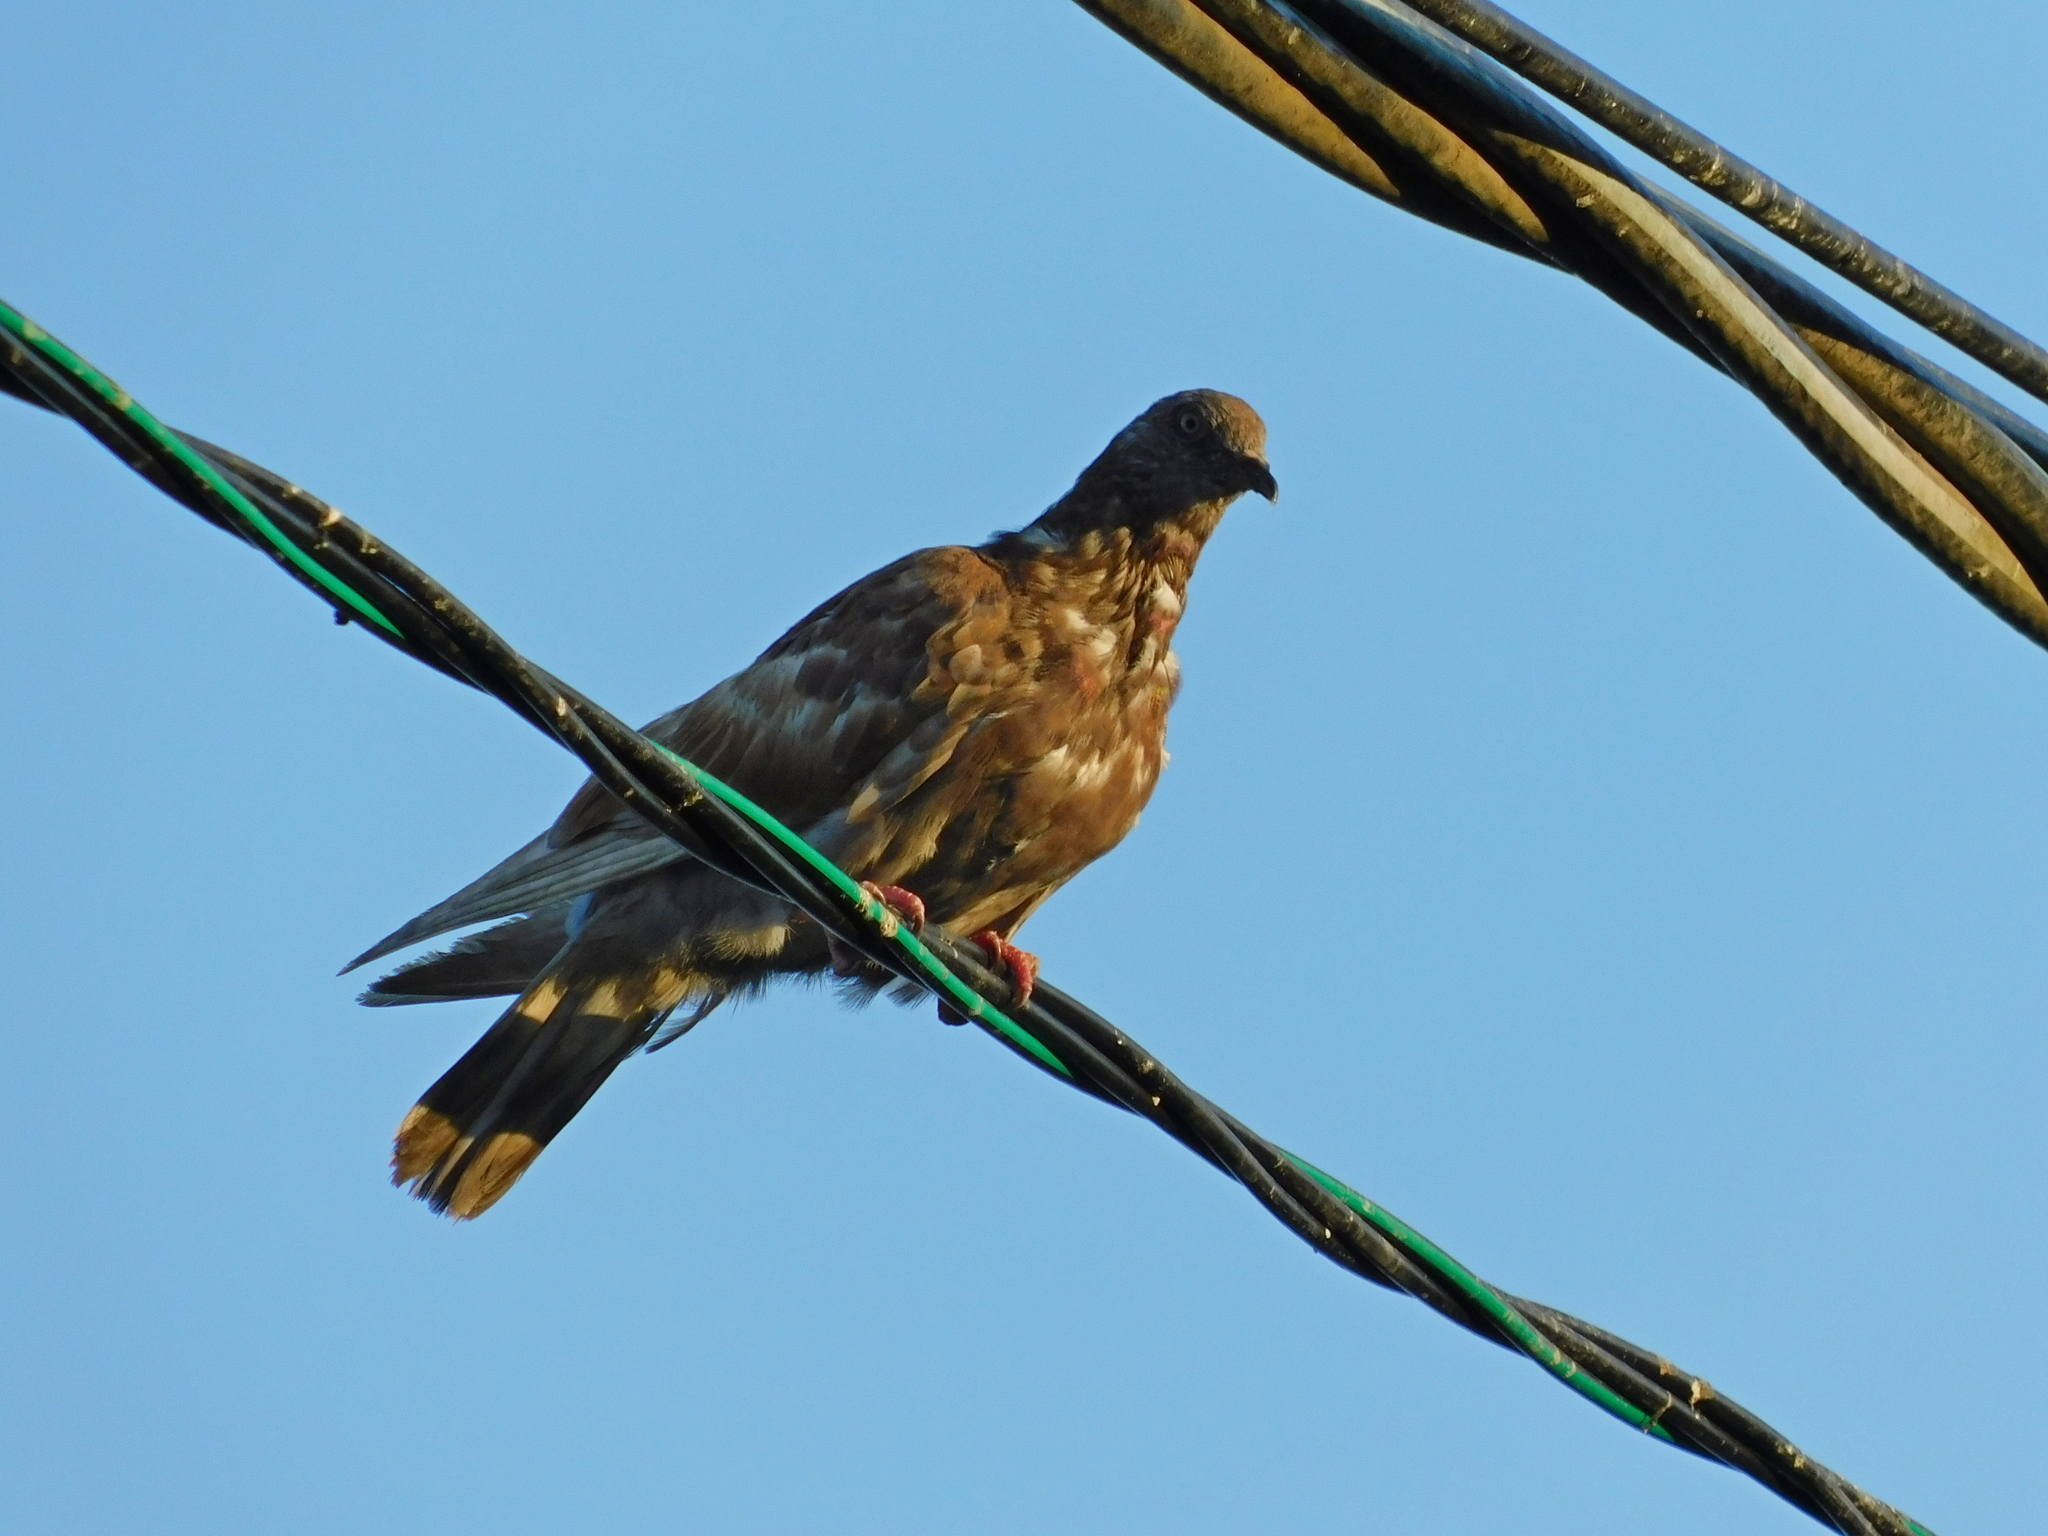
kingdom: Animalia
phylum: Chordata
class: Aves
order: Columbiformes
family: Columbidae
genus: Columba
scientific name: Columba livia
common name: Rock pigeon
